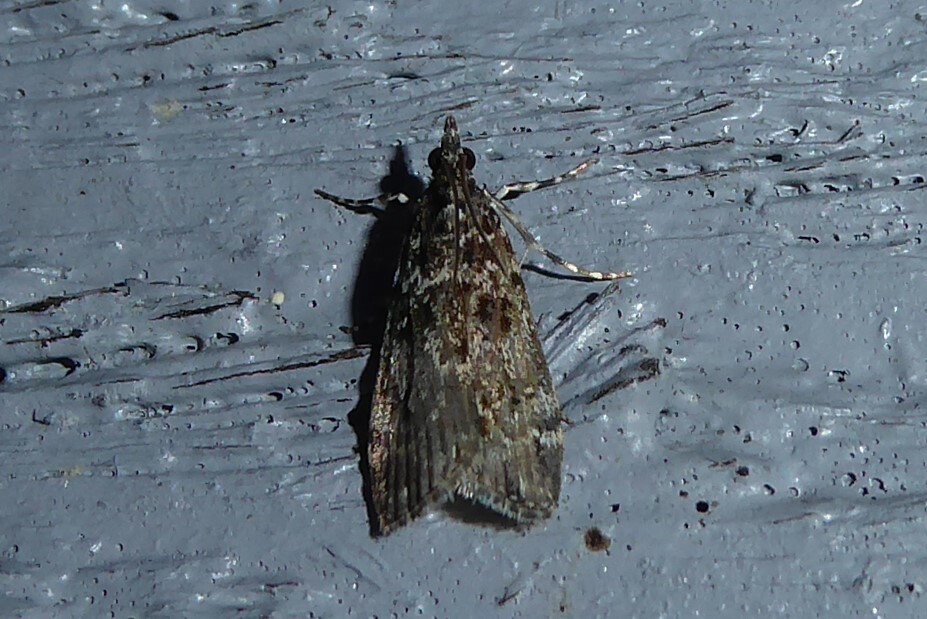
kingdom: Animalia
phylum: Arthropoda
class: Insecta
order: Lepidoptera
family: Crambidae
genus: Eudonia
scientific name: Eudonia philerga
